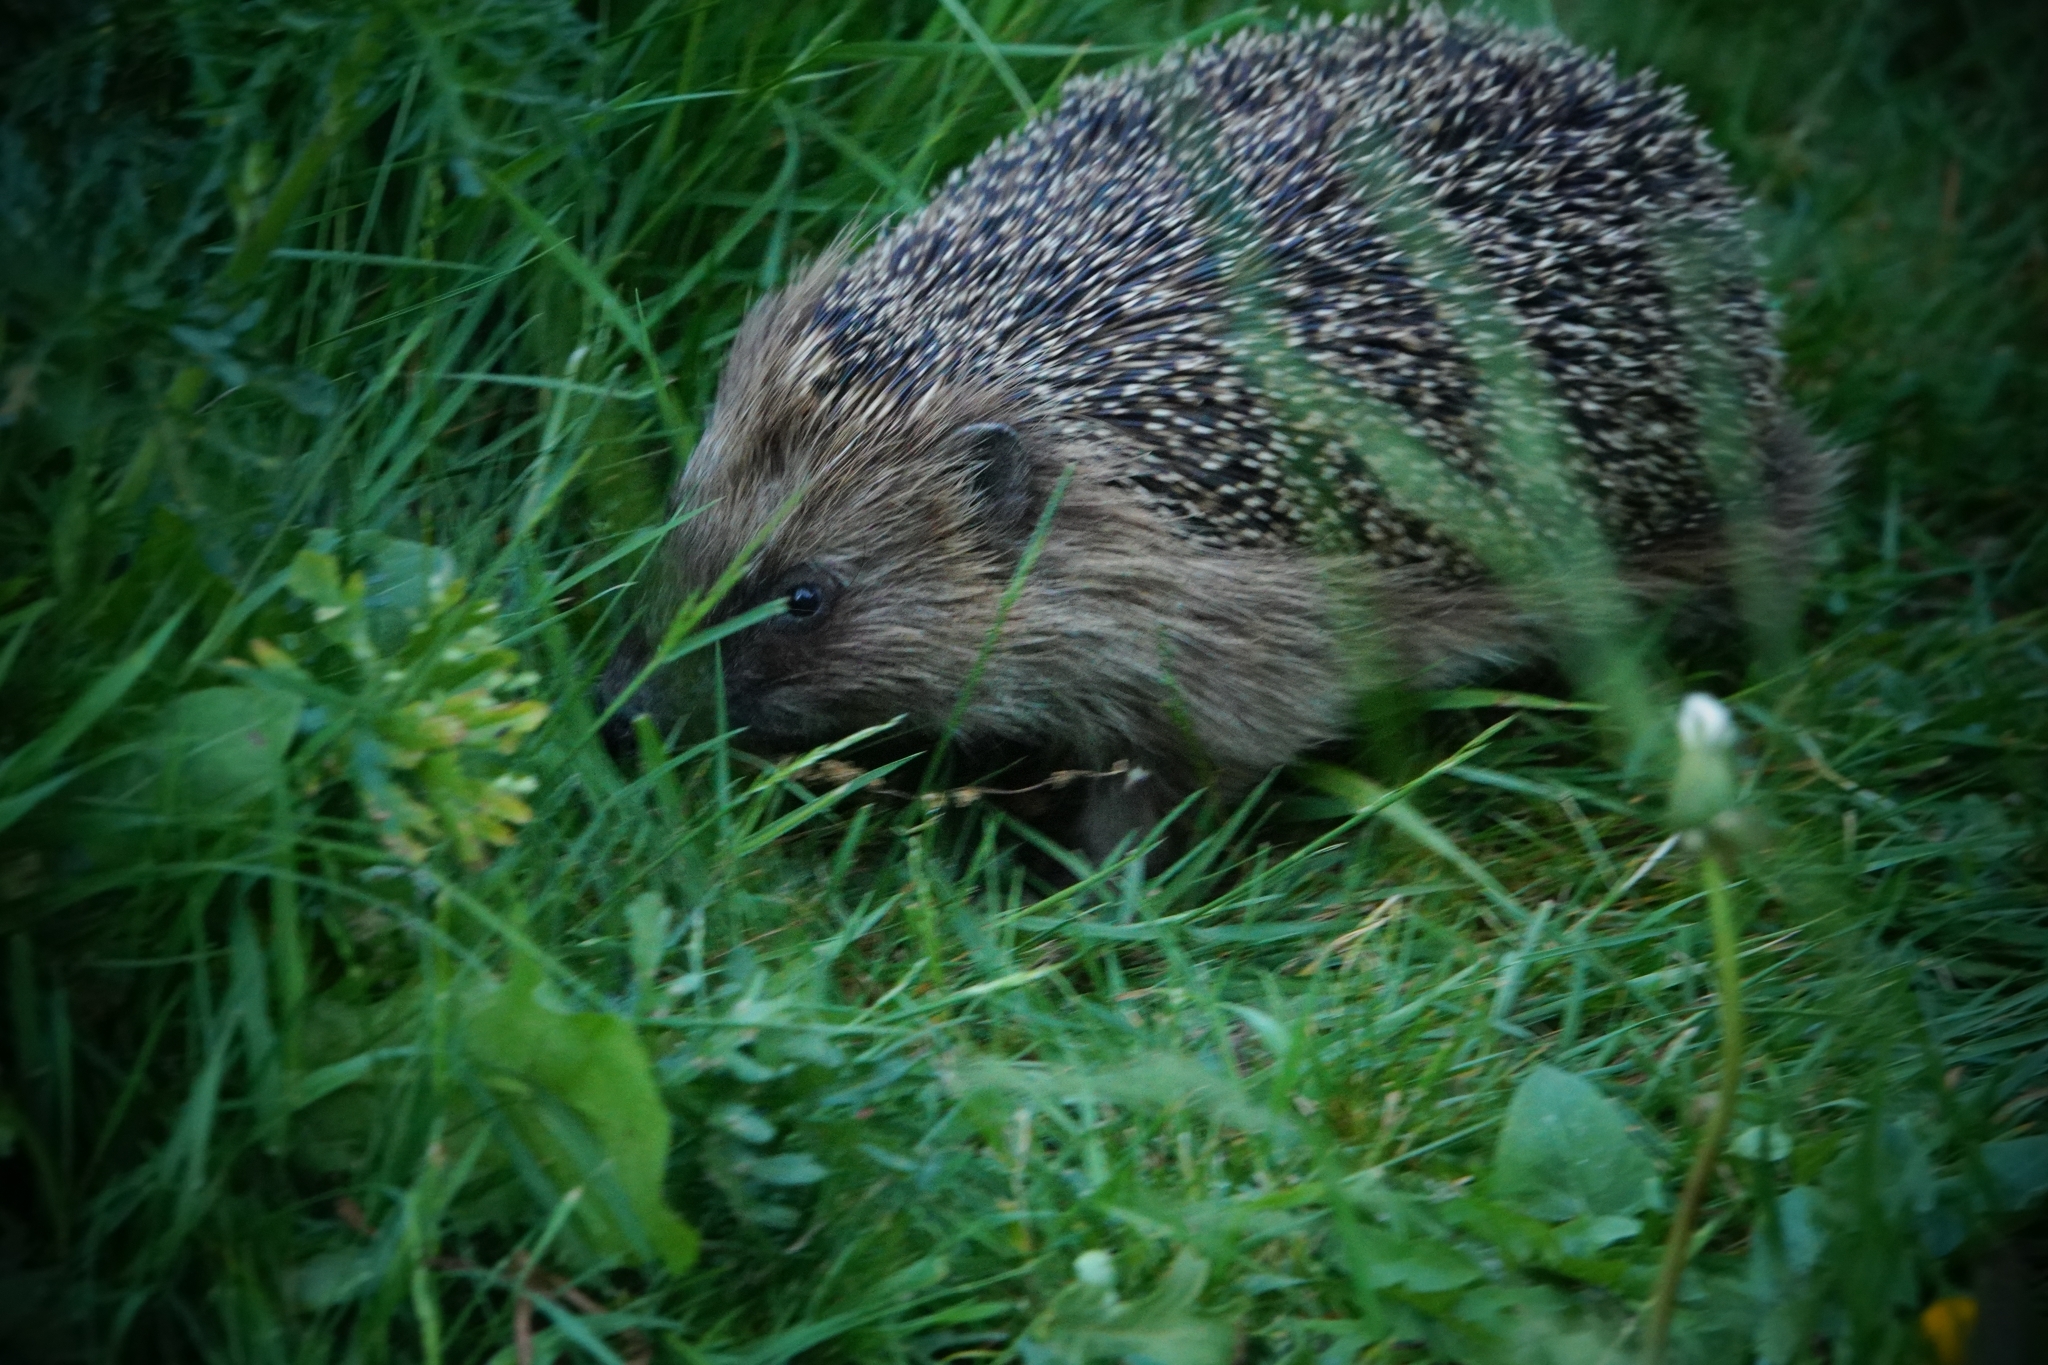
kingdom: Animalia
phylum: Chordata
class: Mammalia
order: Erinaceomorpha
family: Erinaceidae
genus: Erinaceus
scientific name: Erinaceus europaeus
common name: West european hedgehog
